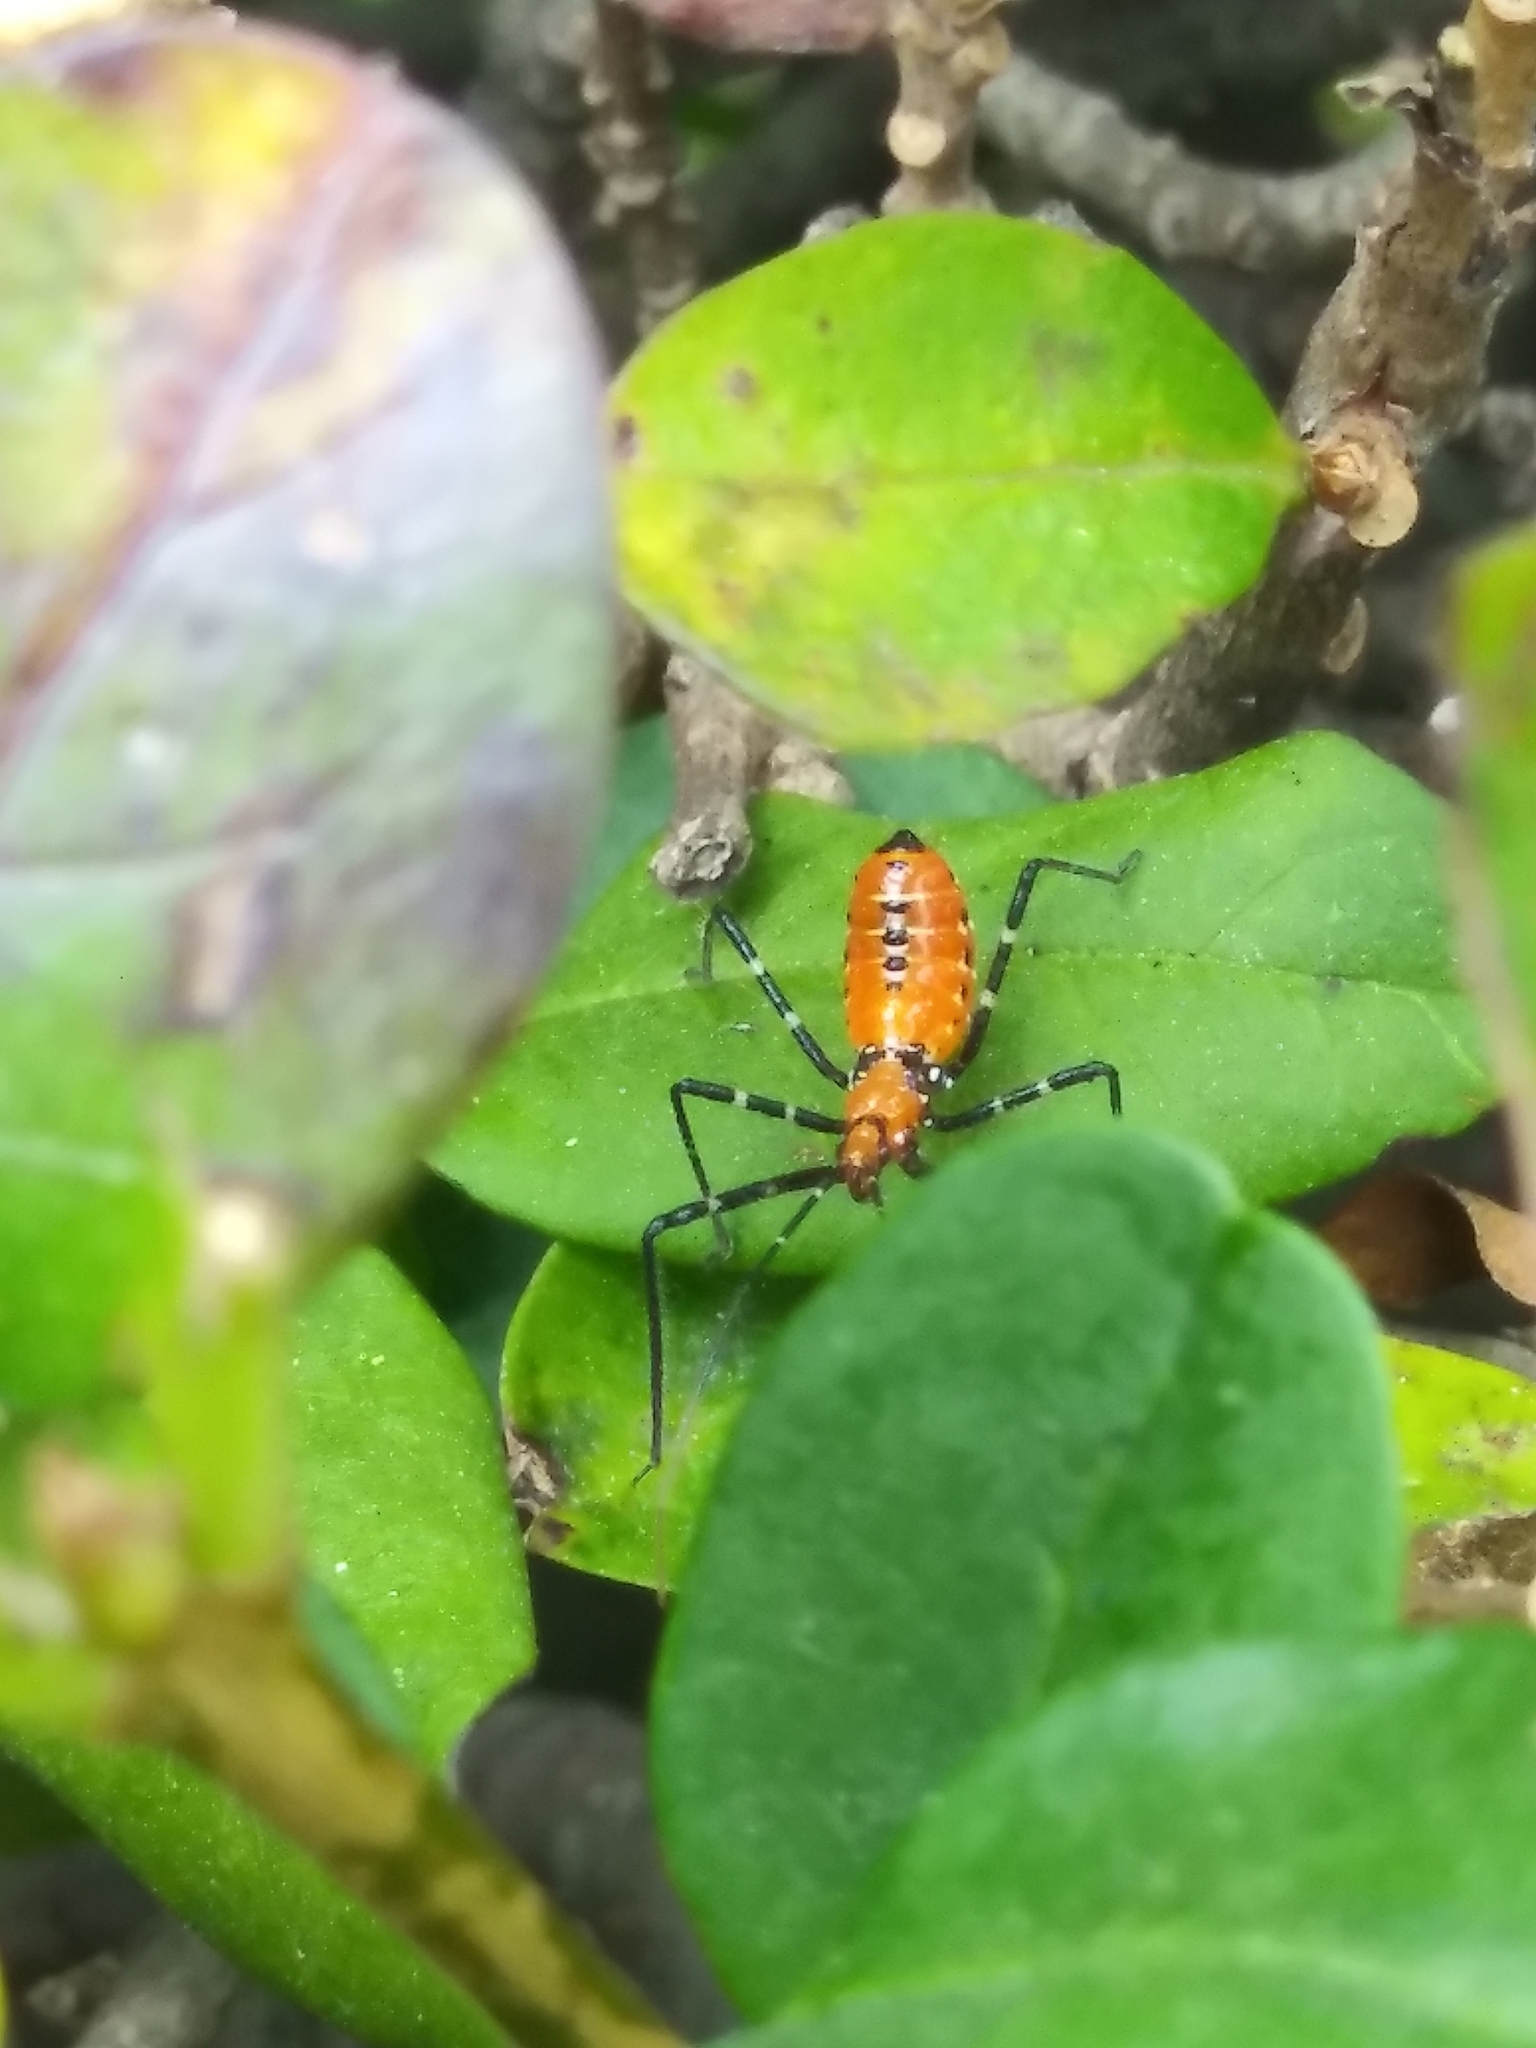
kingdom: Animalia
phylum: Arthropoda
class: Insecta
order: Hemiptera
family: Reduviidae
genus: Zelus
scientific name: Zelus longipes
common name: Milkweed assassin bug
